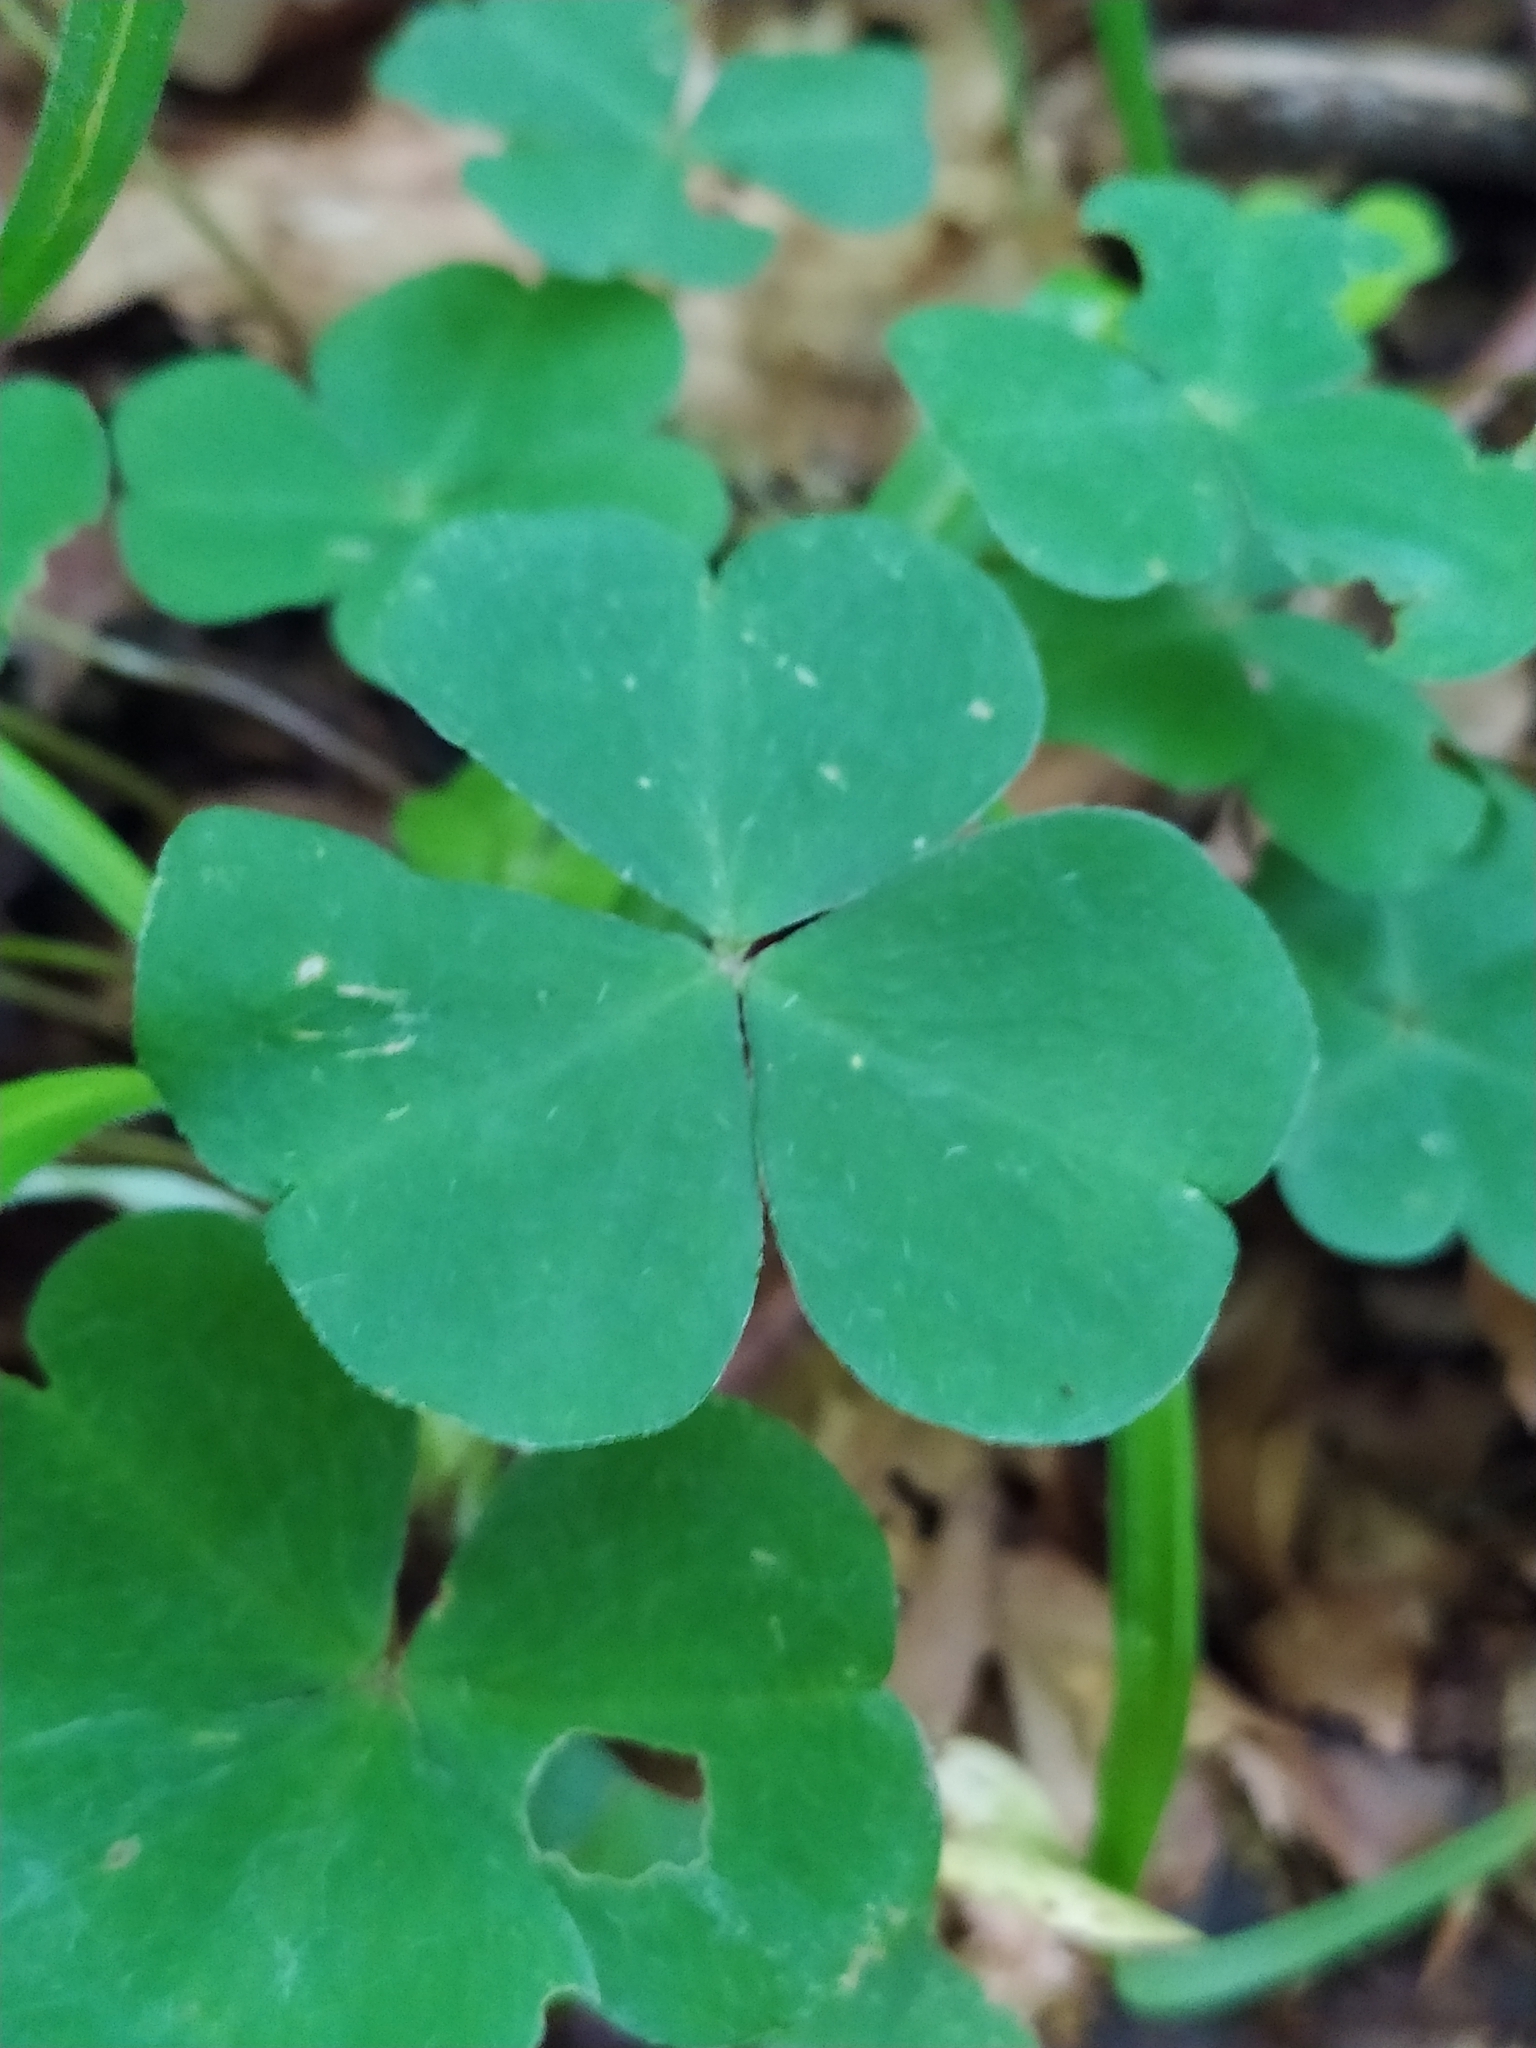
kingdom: Plantae
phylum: Tracheophyta
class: Magnoliopsida
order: Oxalidales
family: Oxalidaceae
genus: Oxalis
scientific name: Oxalis acetosella
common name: Wood-sorrel
